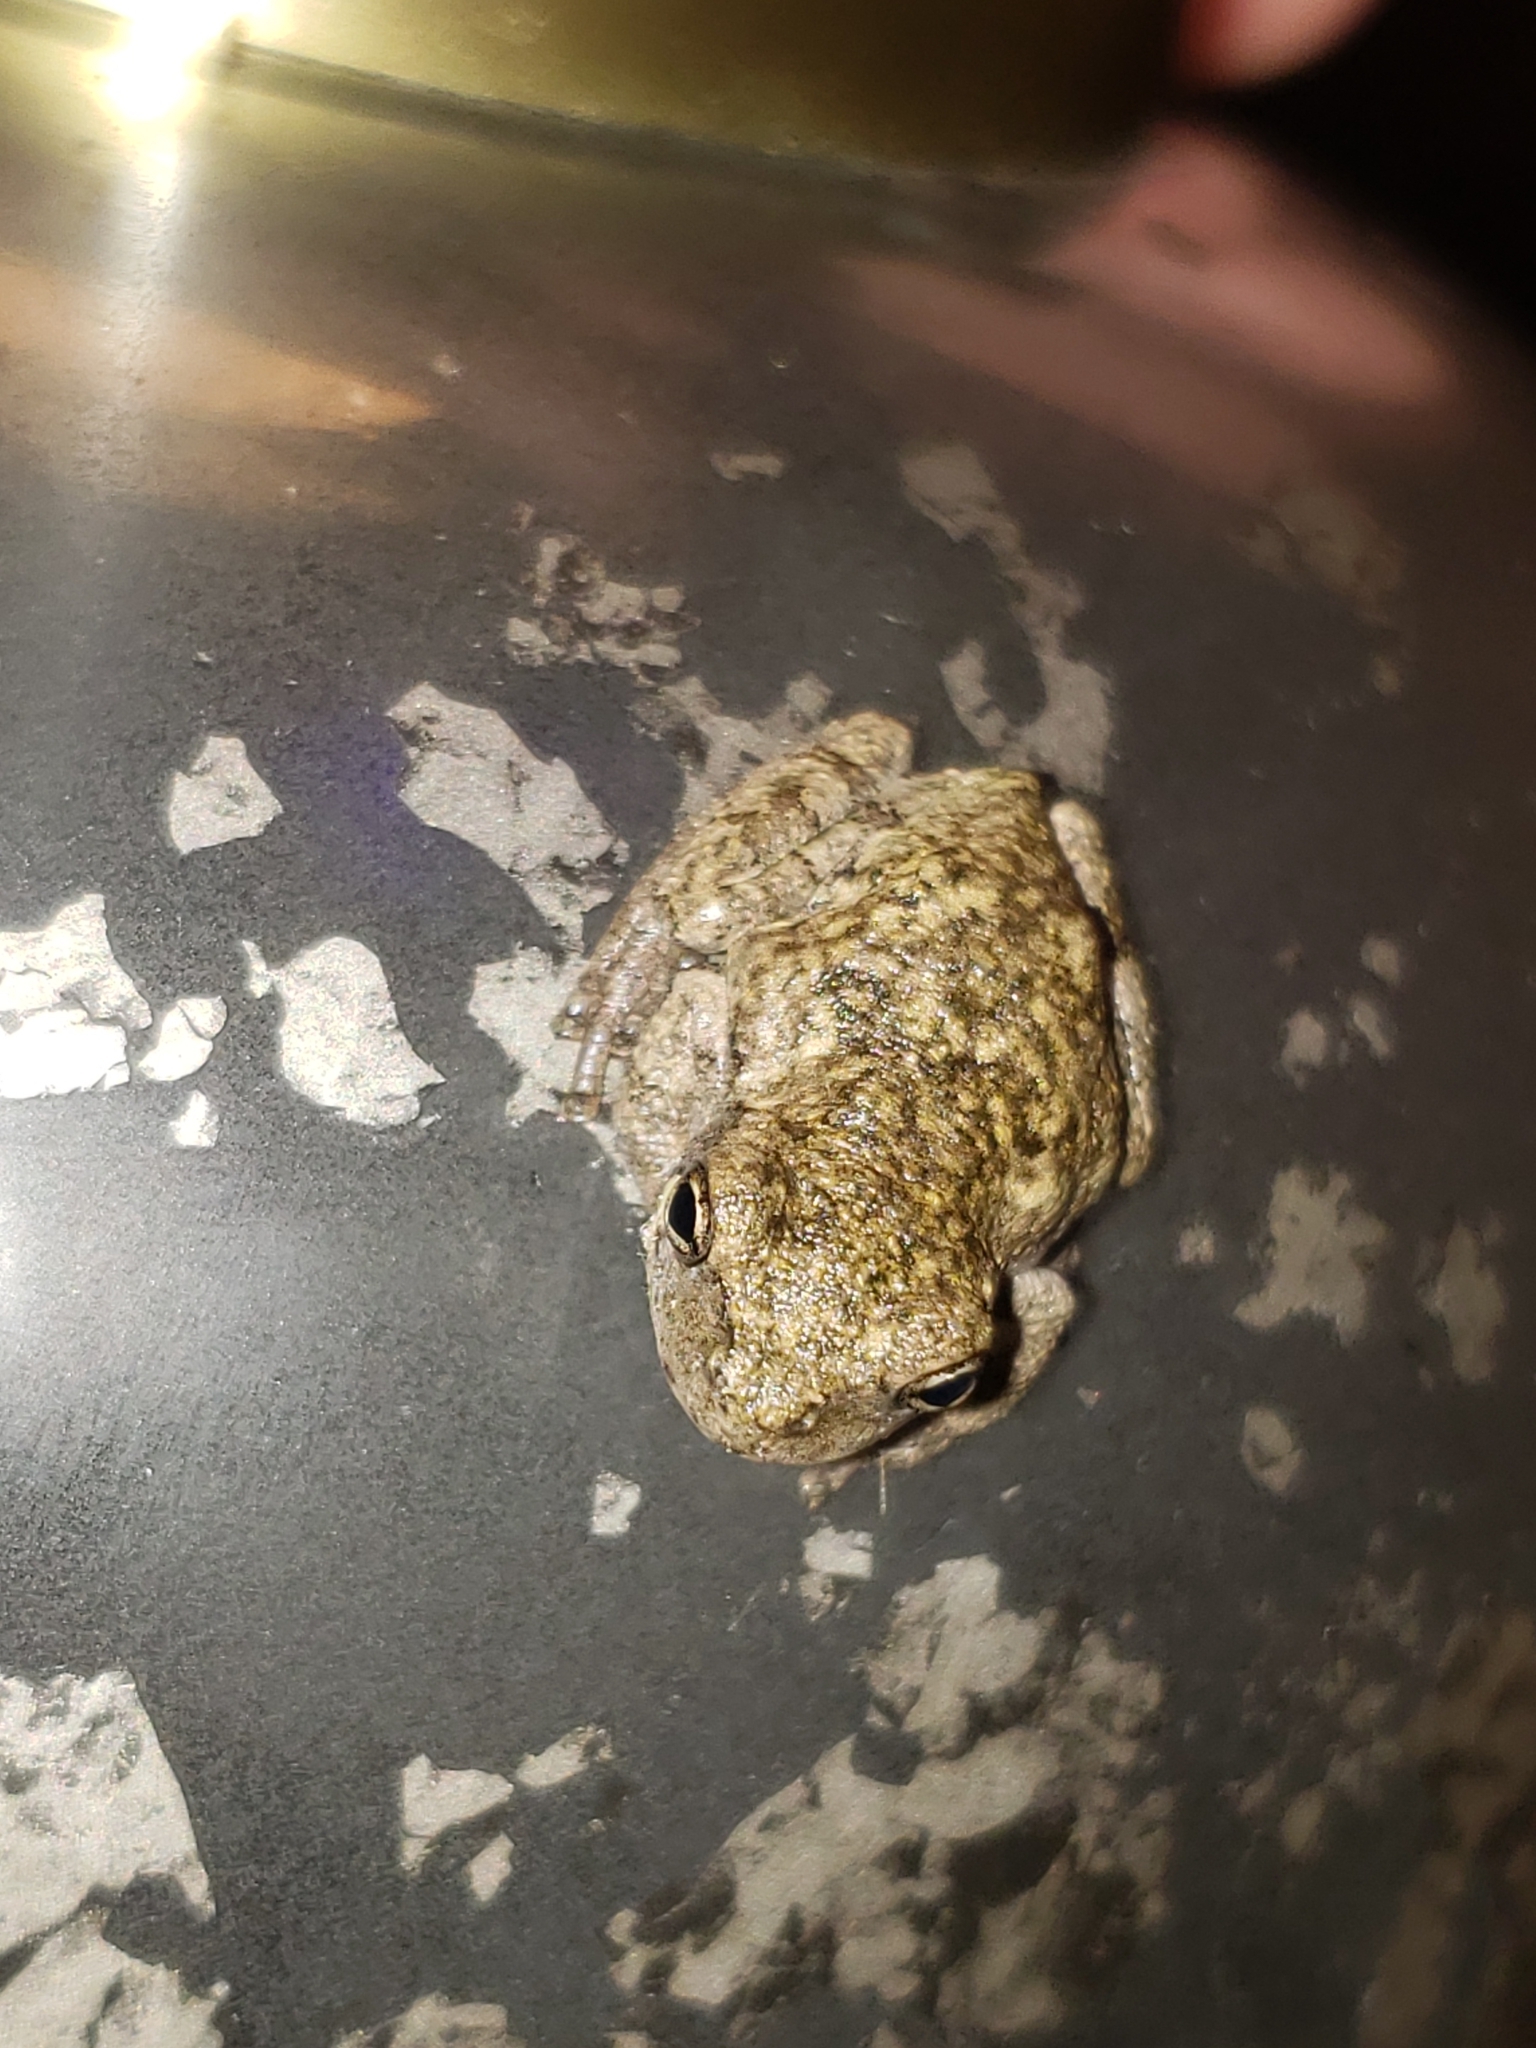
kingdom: Animalia
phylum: Chordata
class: Amphibia
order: Anura
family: Hylidae
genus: Hyla
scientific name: Hyla
